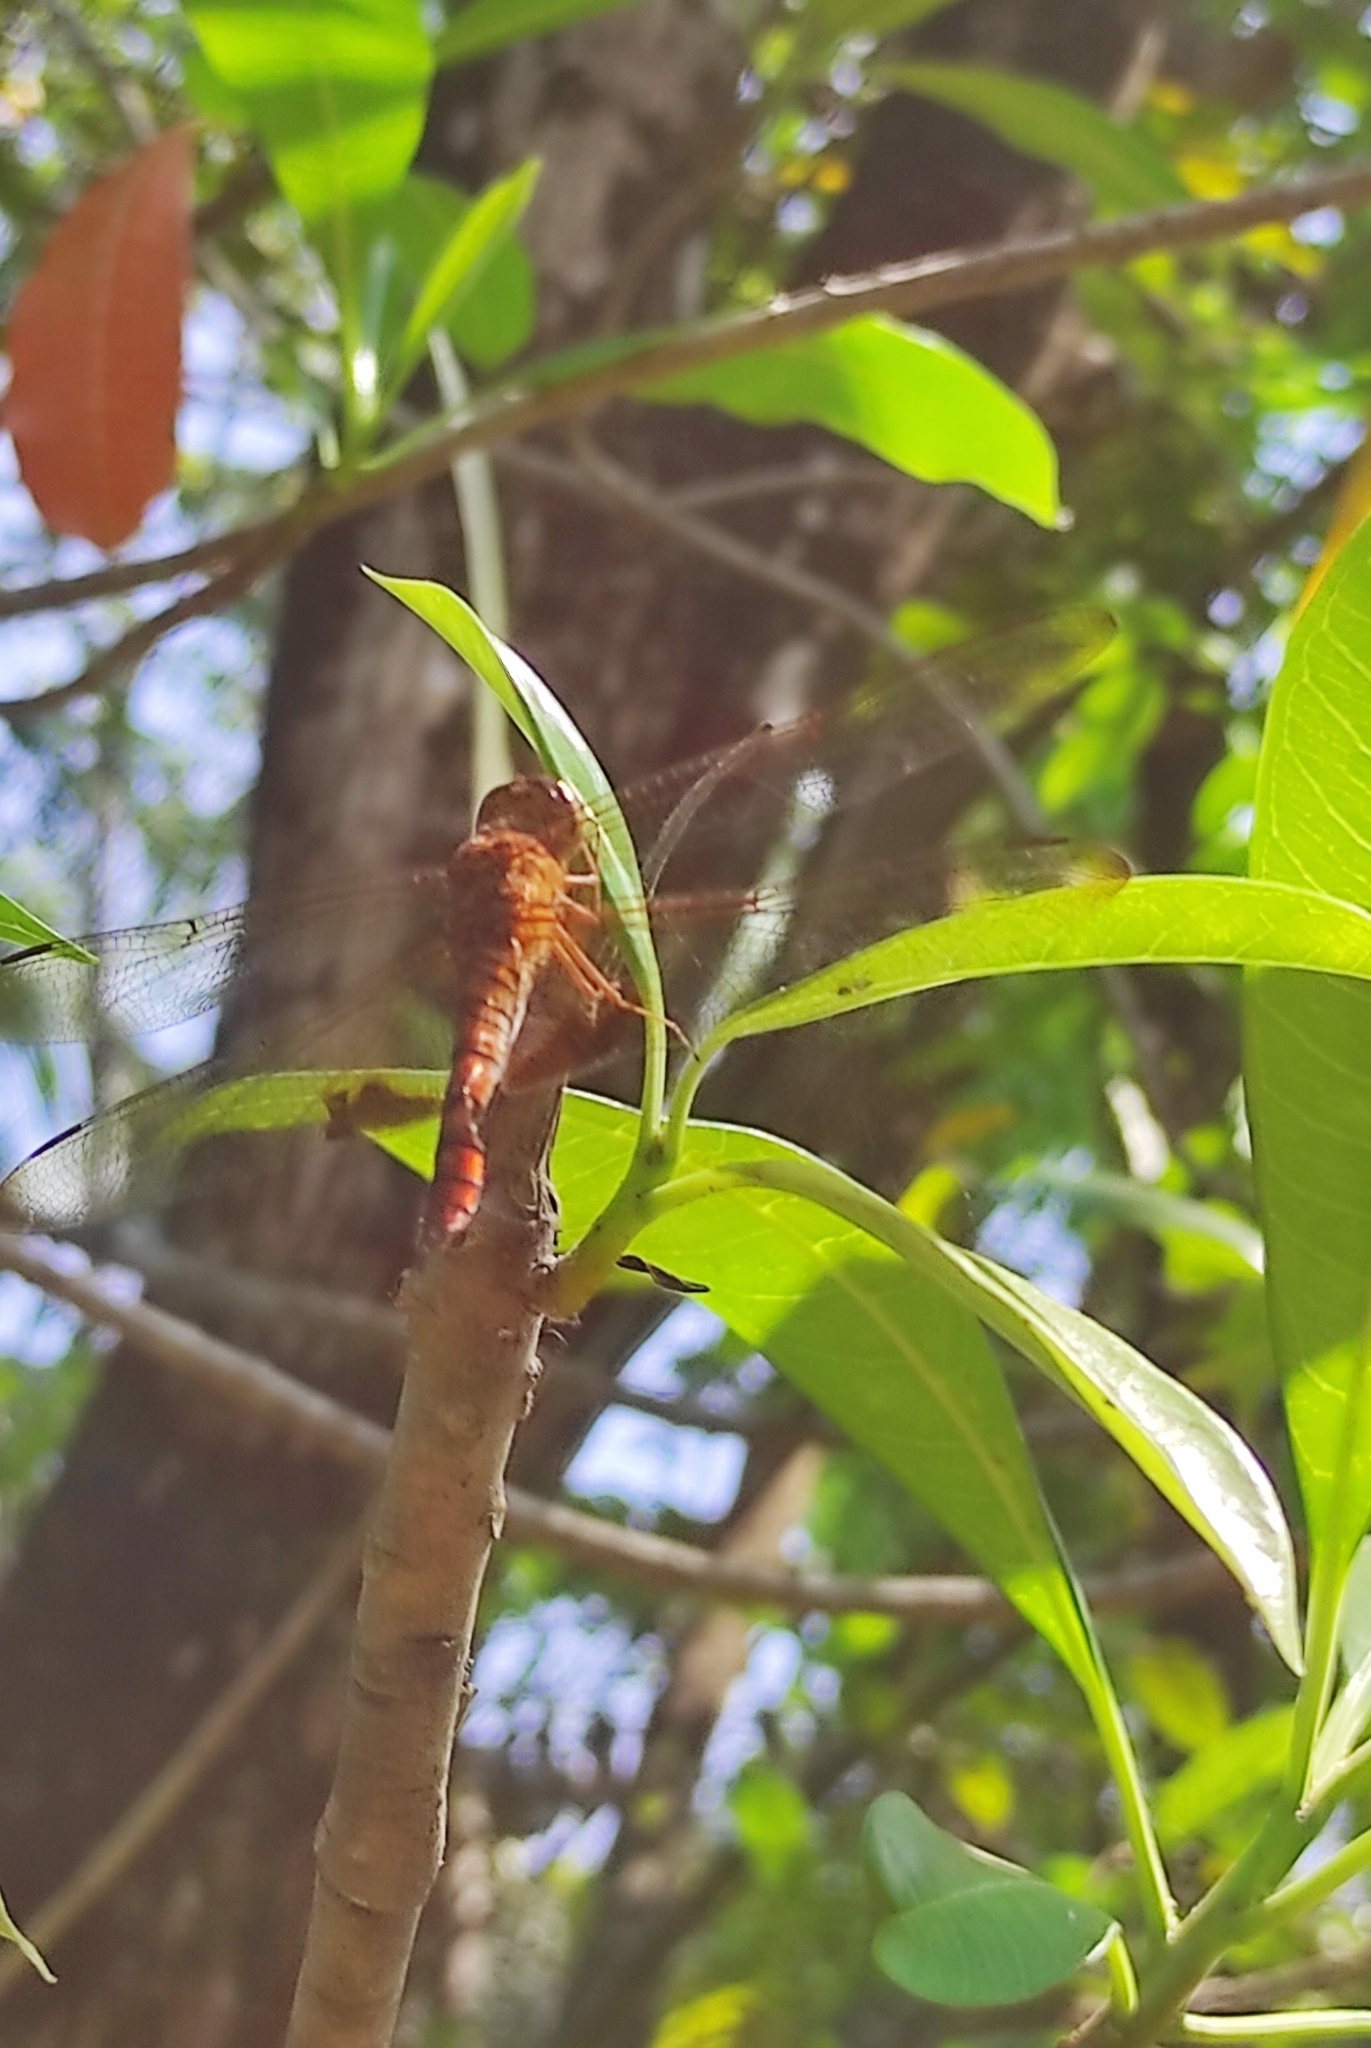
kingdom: Animalia
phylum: Arthropoda
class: Insecta
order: Odonata
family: Libellulidae
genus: Hydrobasileus
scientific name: Hydrobasileus croceus
